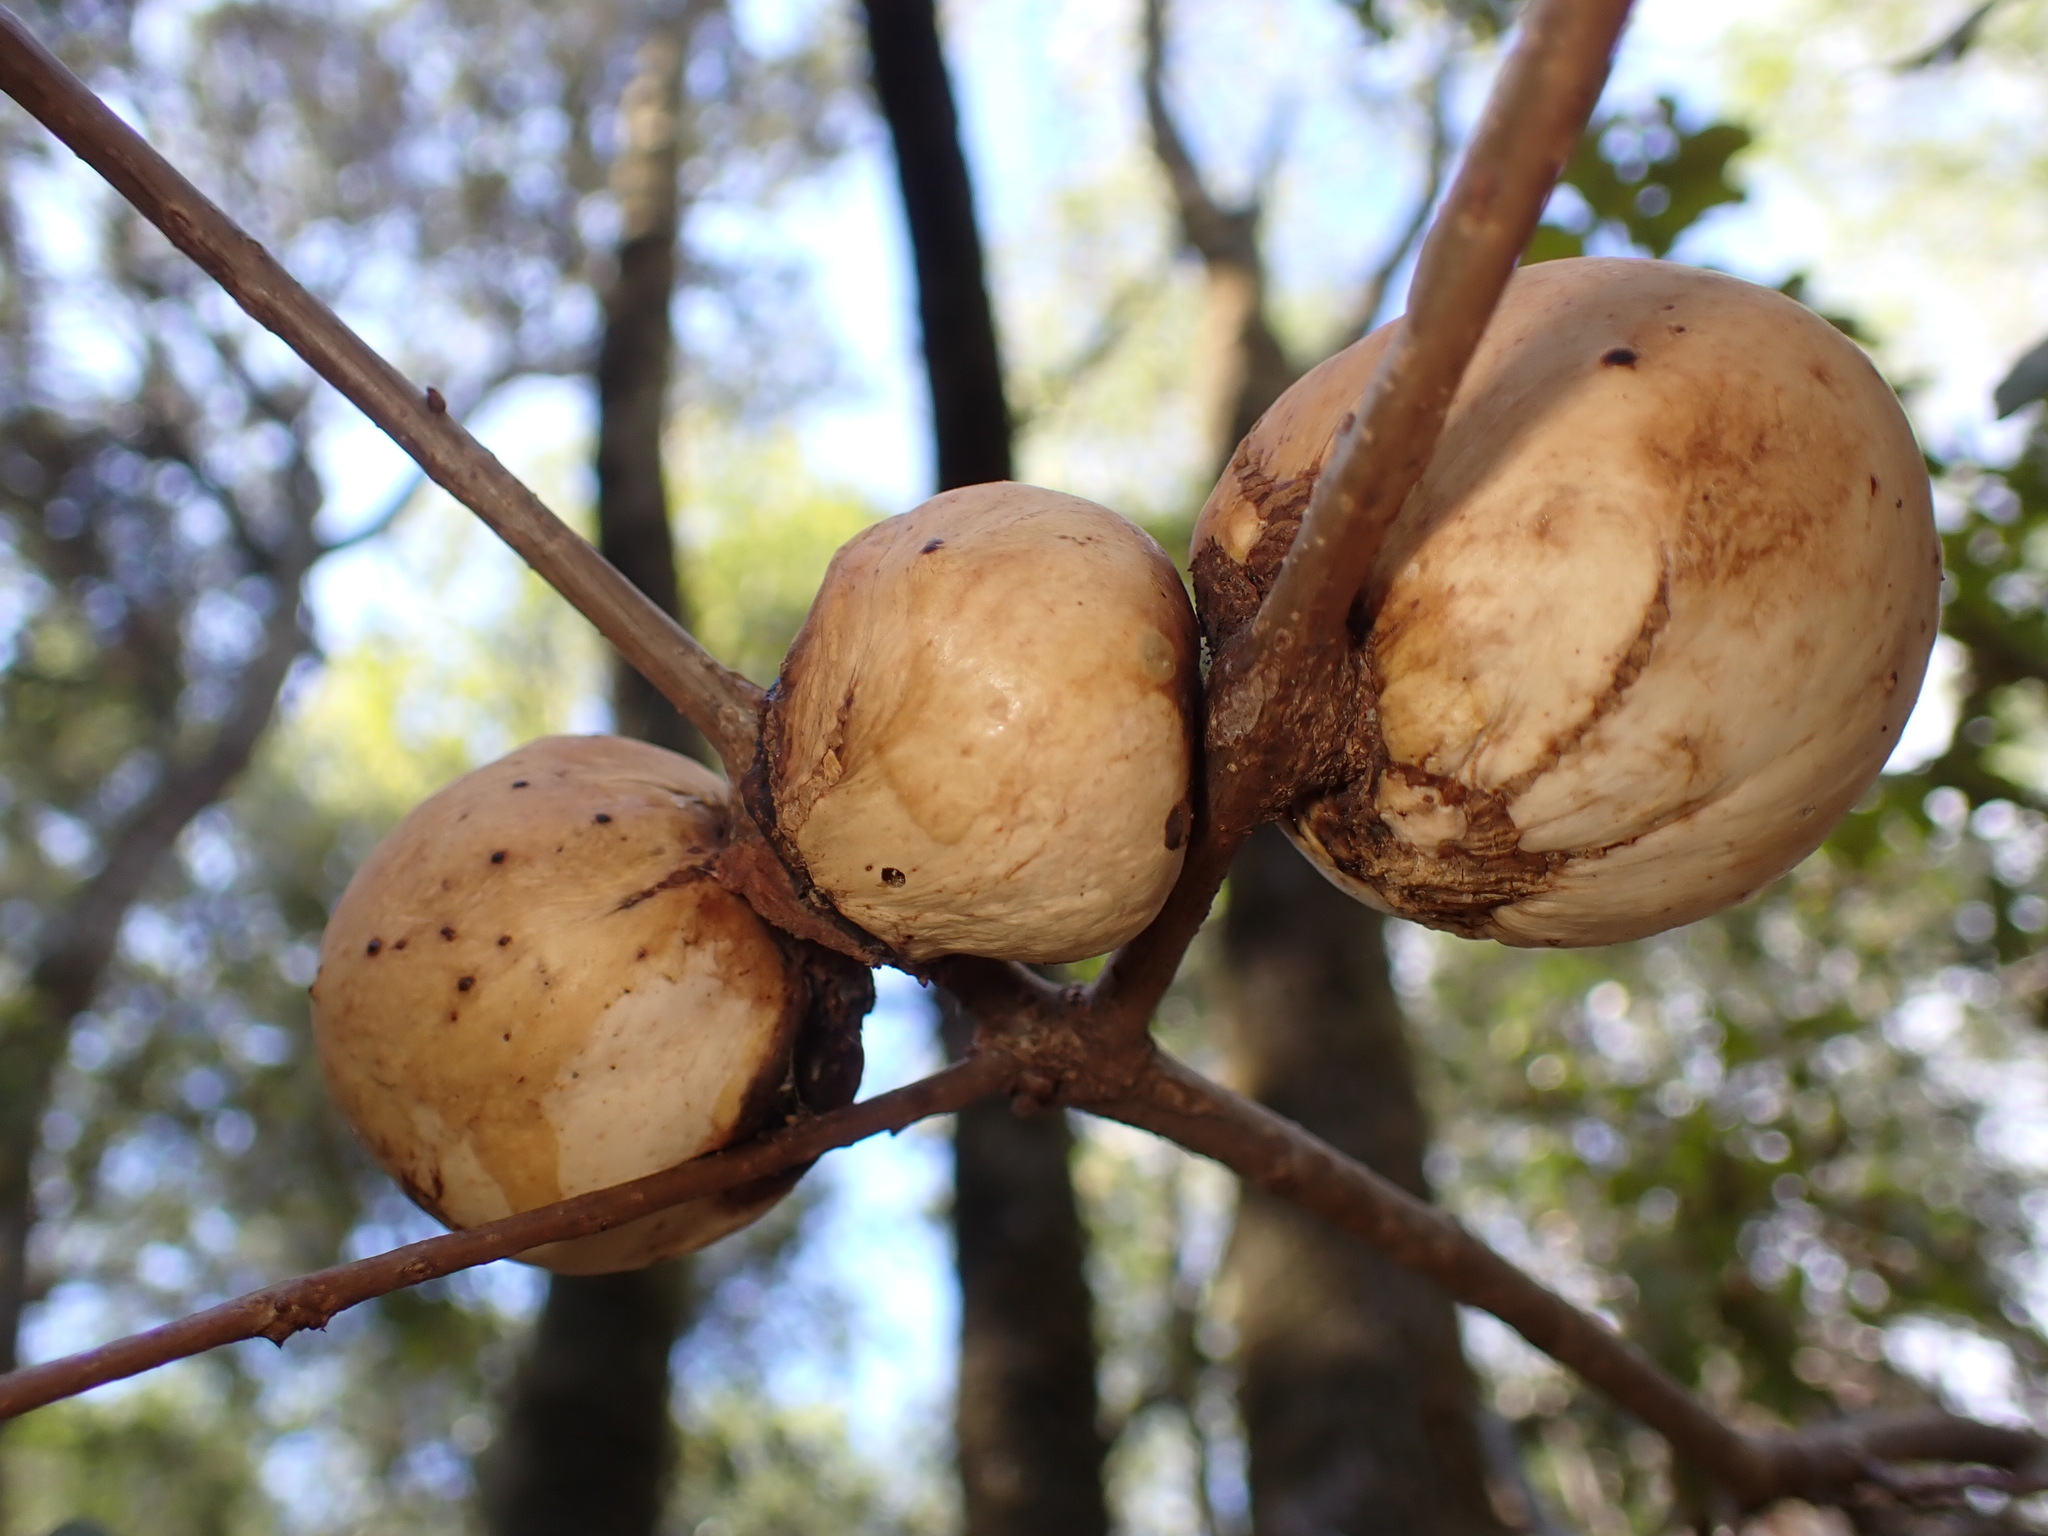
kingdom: Animalia
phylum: Arthropoda
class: Insecta
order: Hymenoptera
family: Cynipidae
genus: Andricus
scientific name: Andricus quercuscalifornicus
